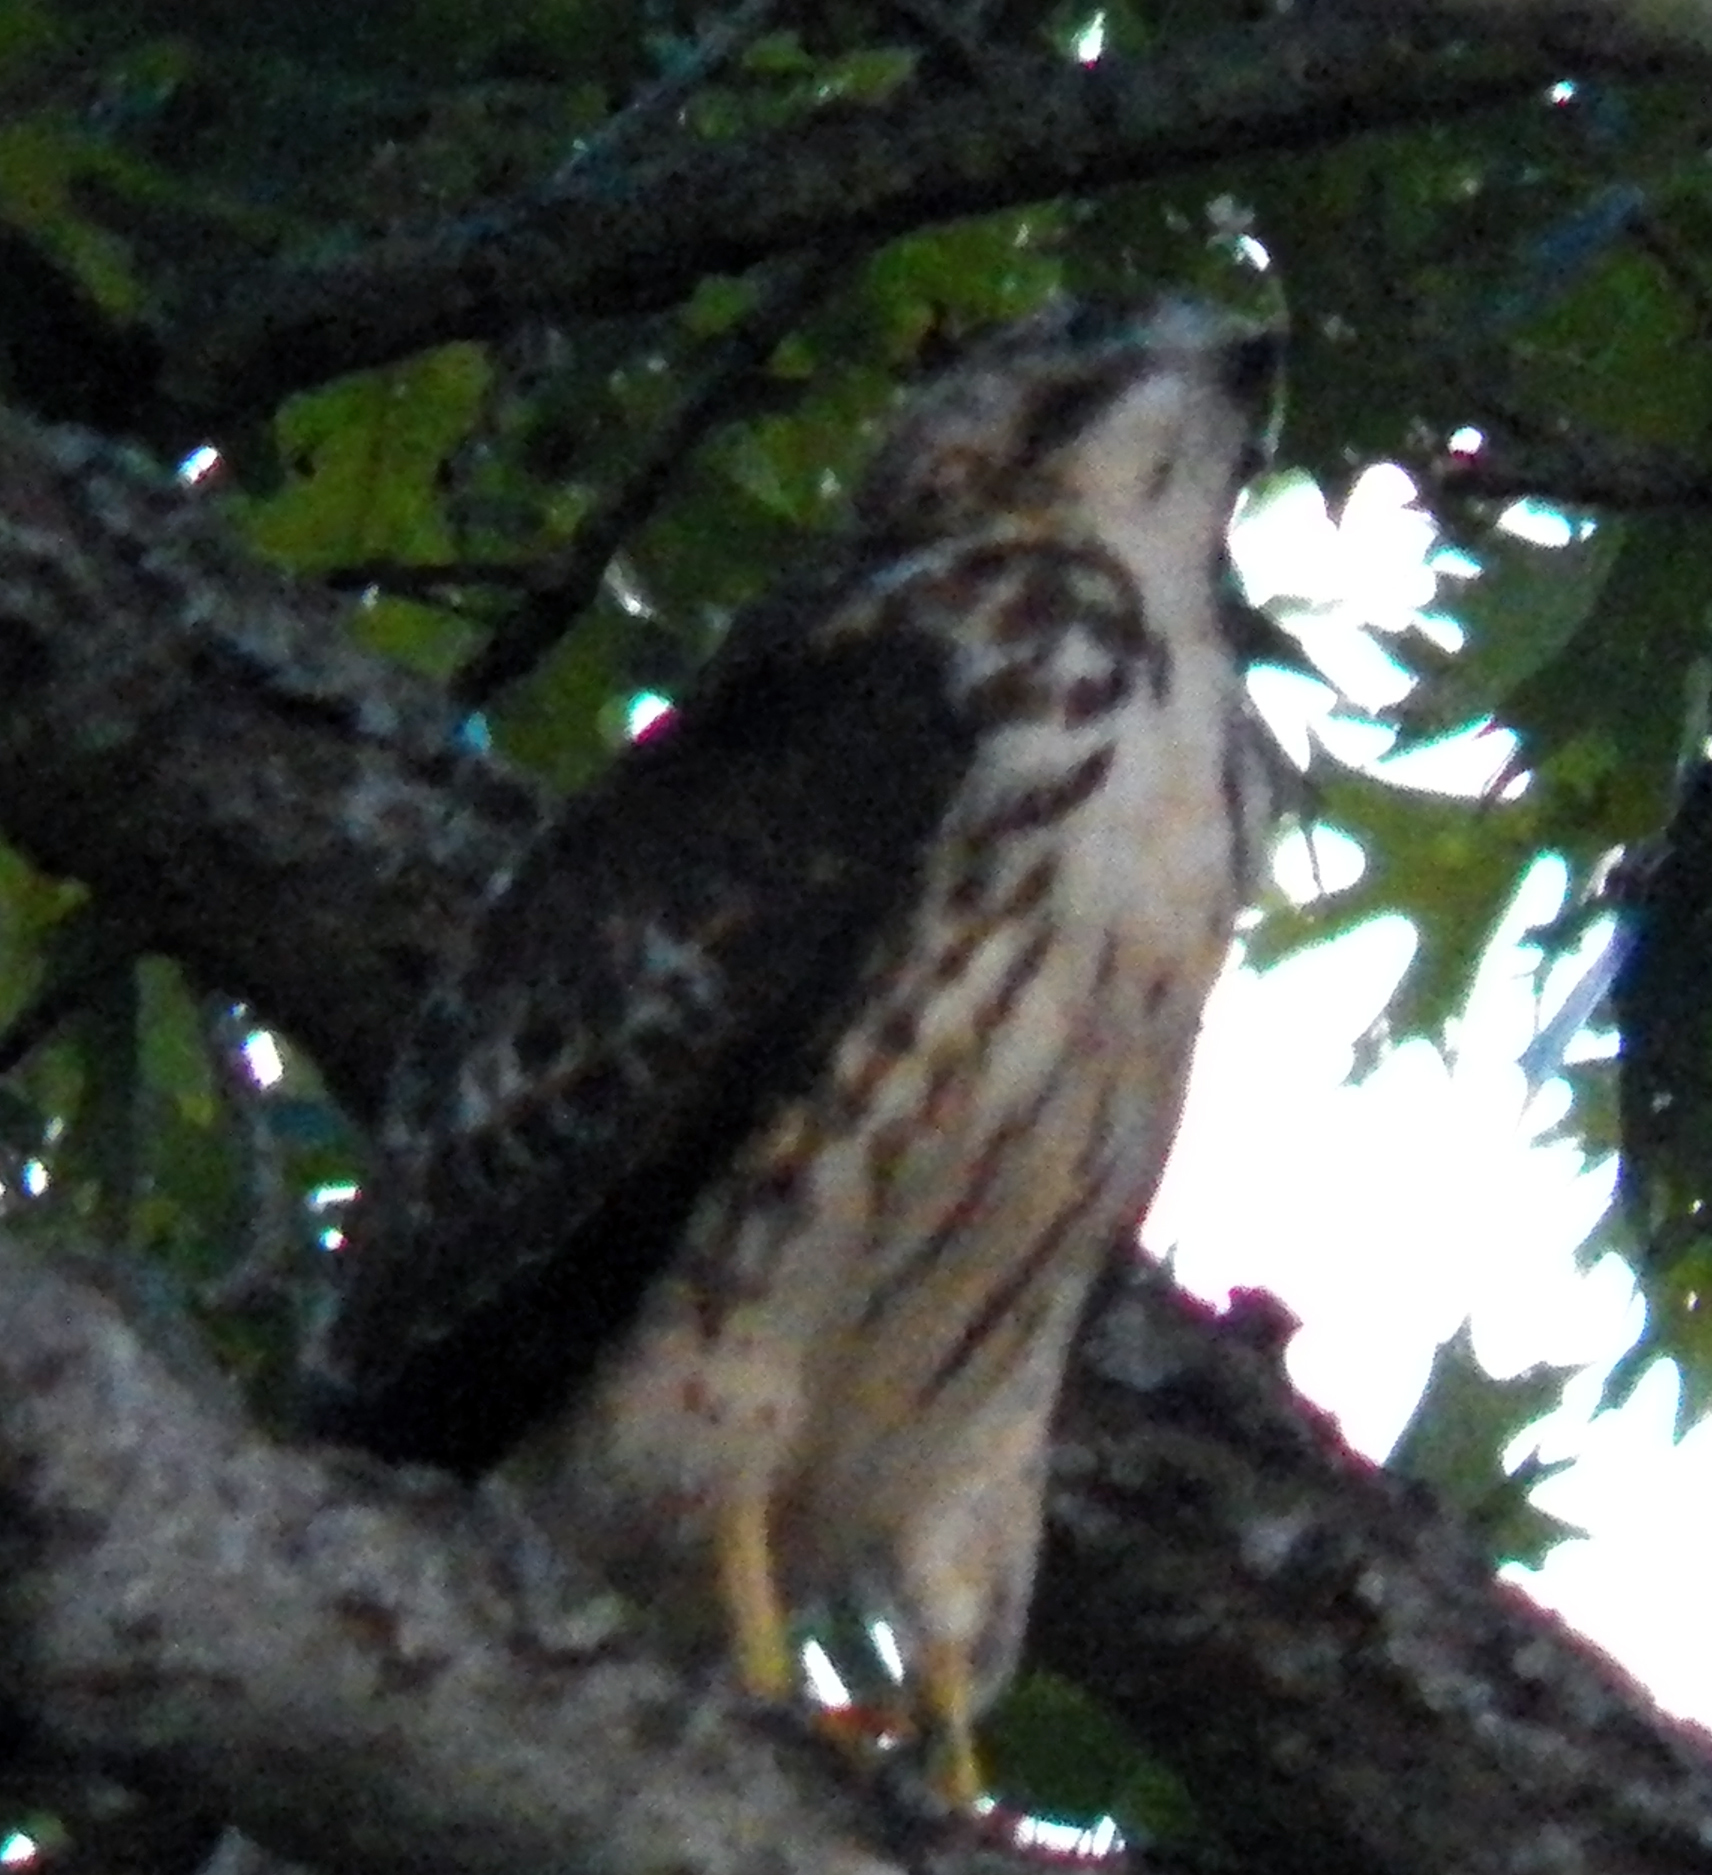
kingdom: Animalia
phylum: Chordata
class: Aves
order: Accipitriformes
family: Accipitridae
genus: Buteo
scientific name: Buteo platypterus
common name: Broad-winged hawk
